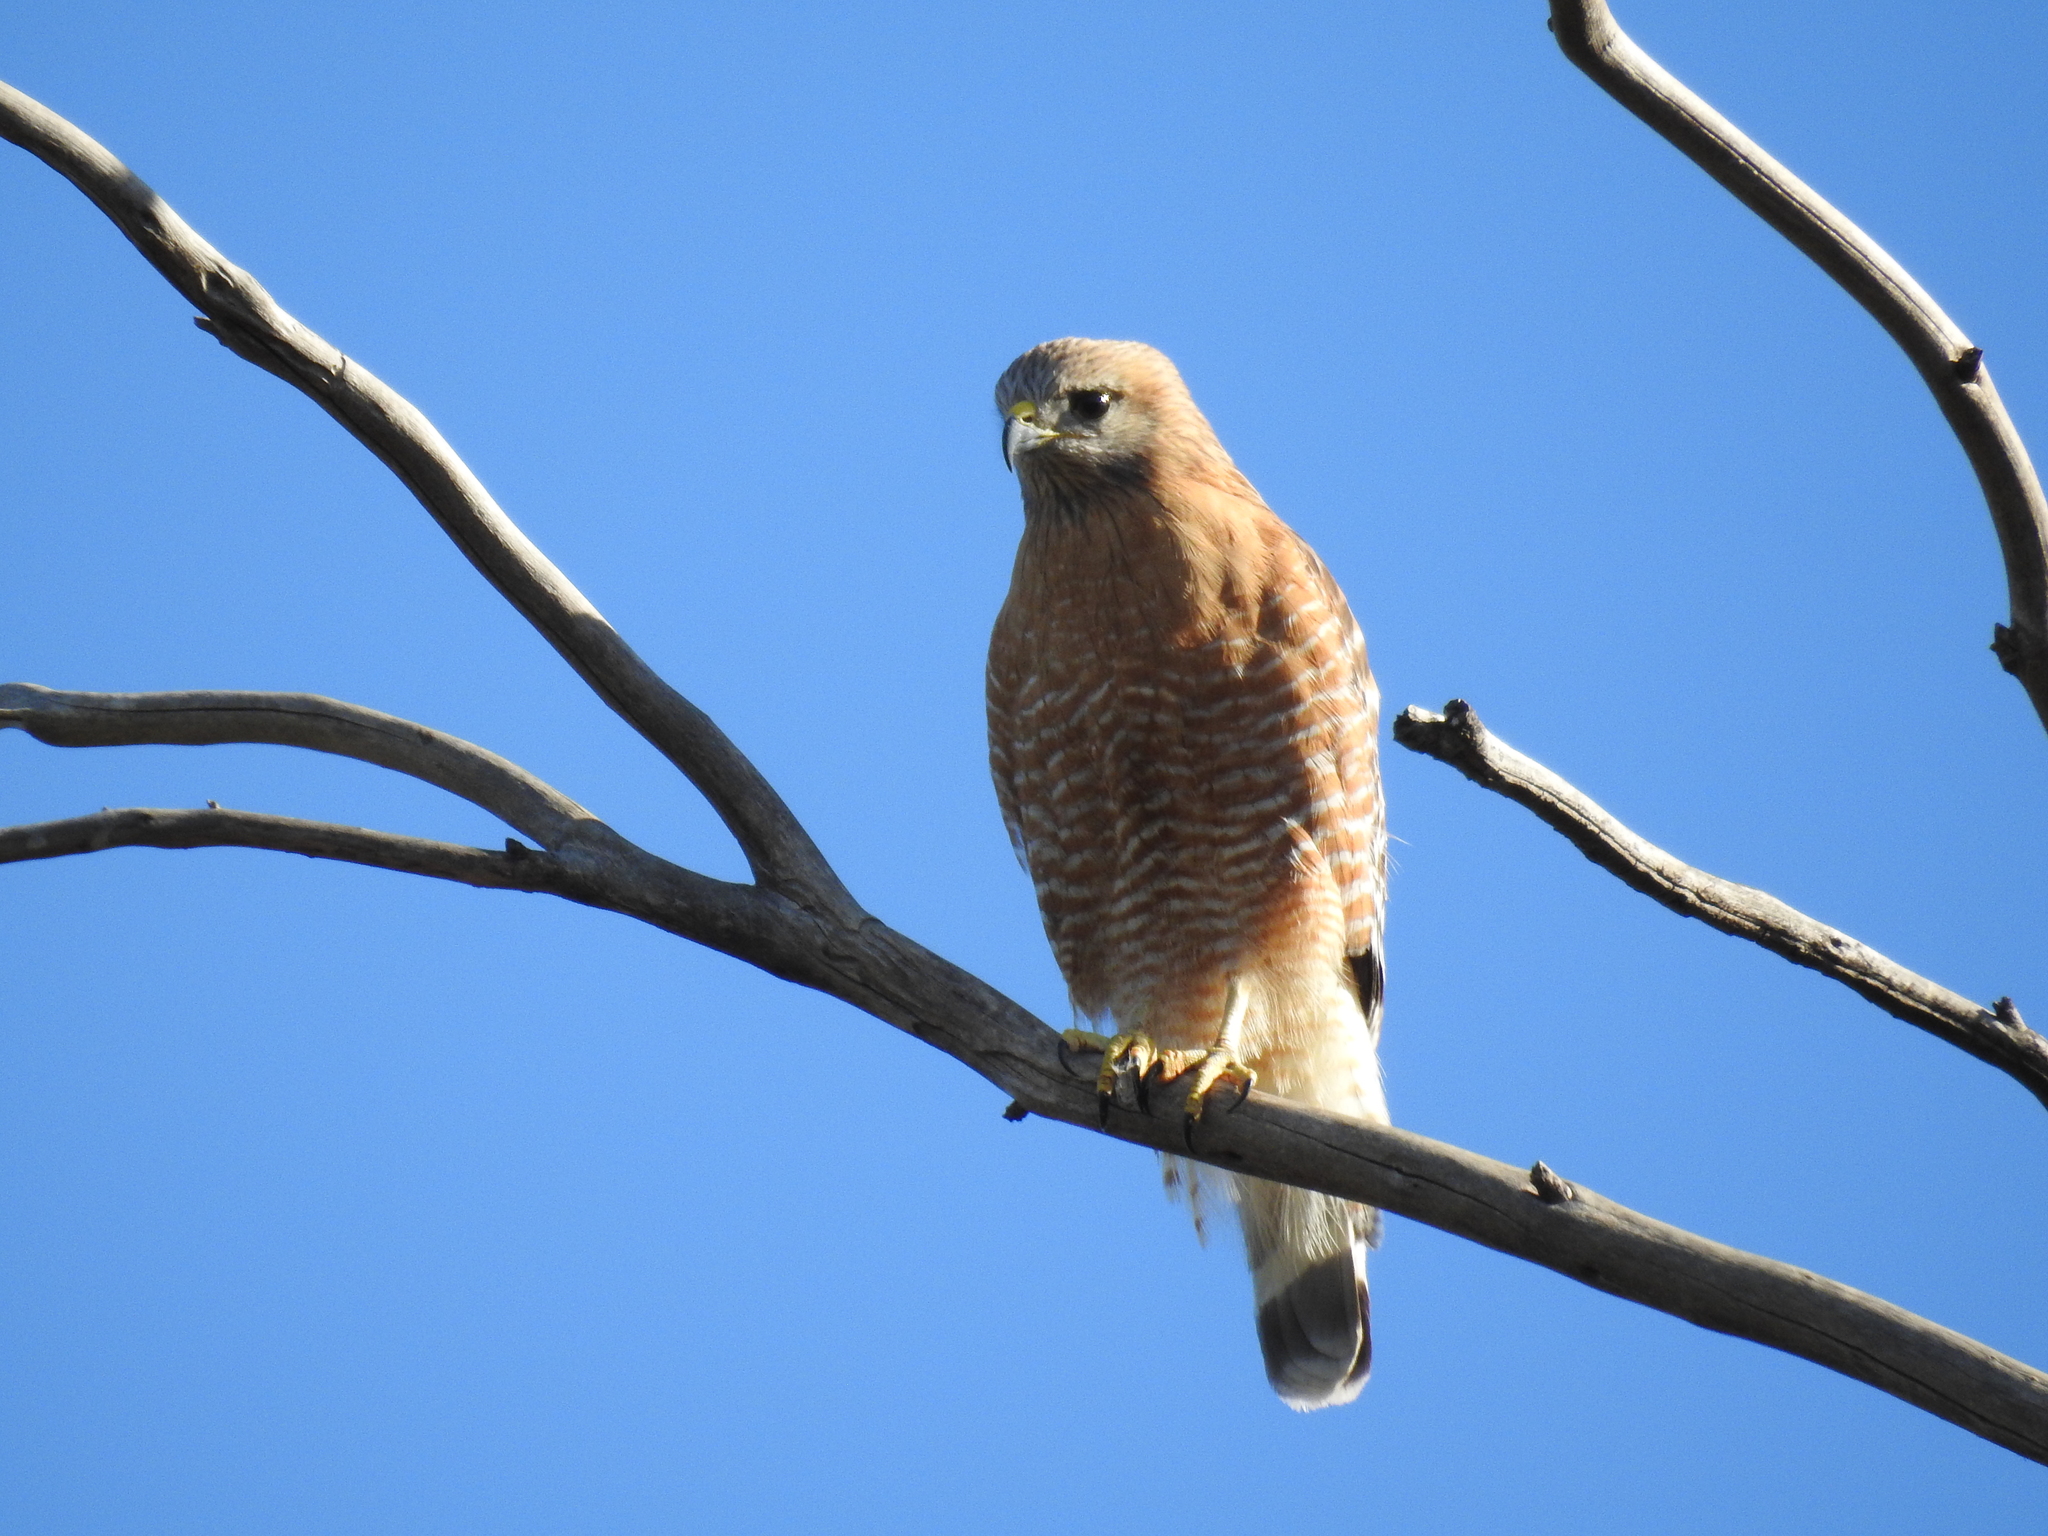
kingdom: Animalia
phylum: Chordata
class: Aves
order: Accipitriformes
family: Accipitridae
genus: Buteo
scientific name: Buteo lineatus
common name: Red-shouldered hawk
